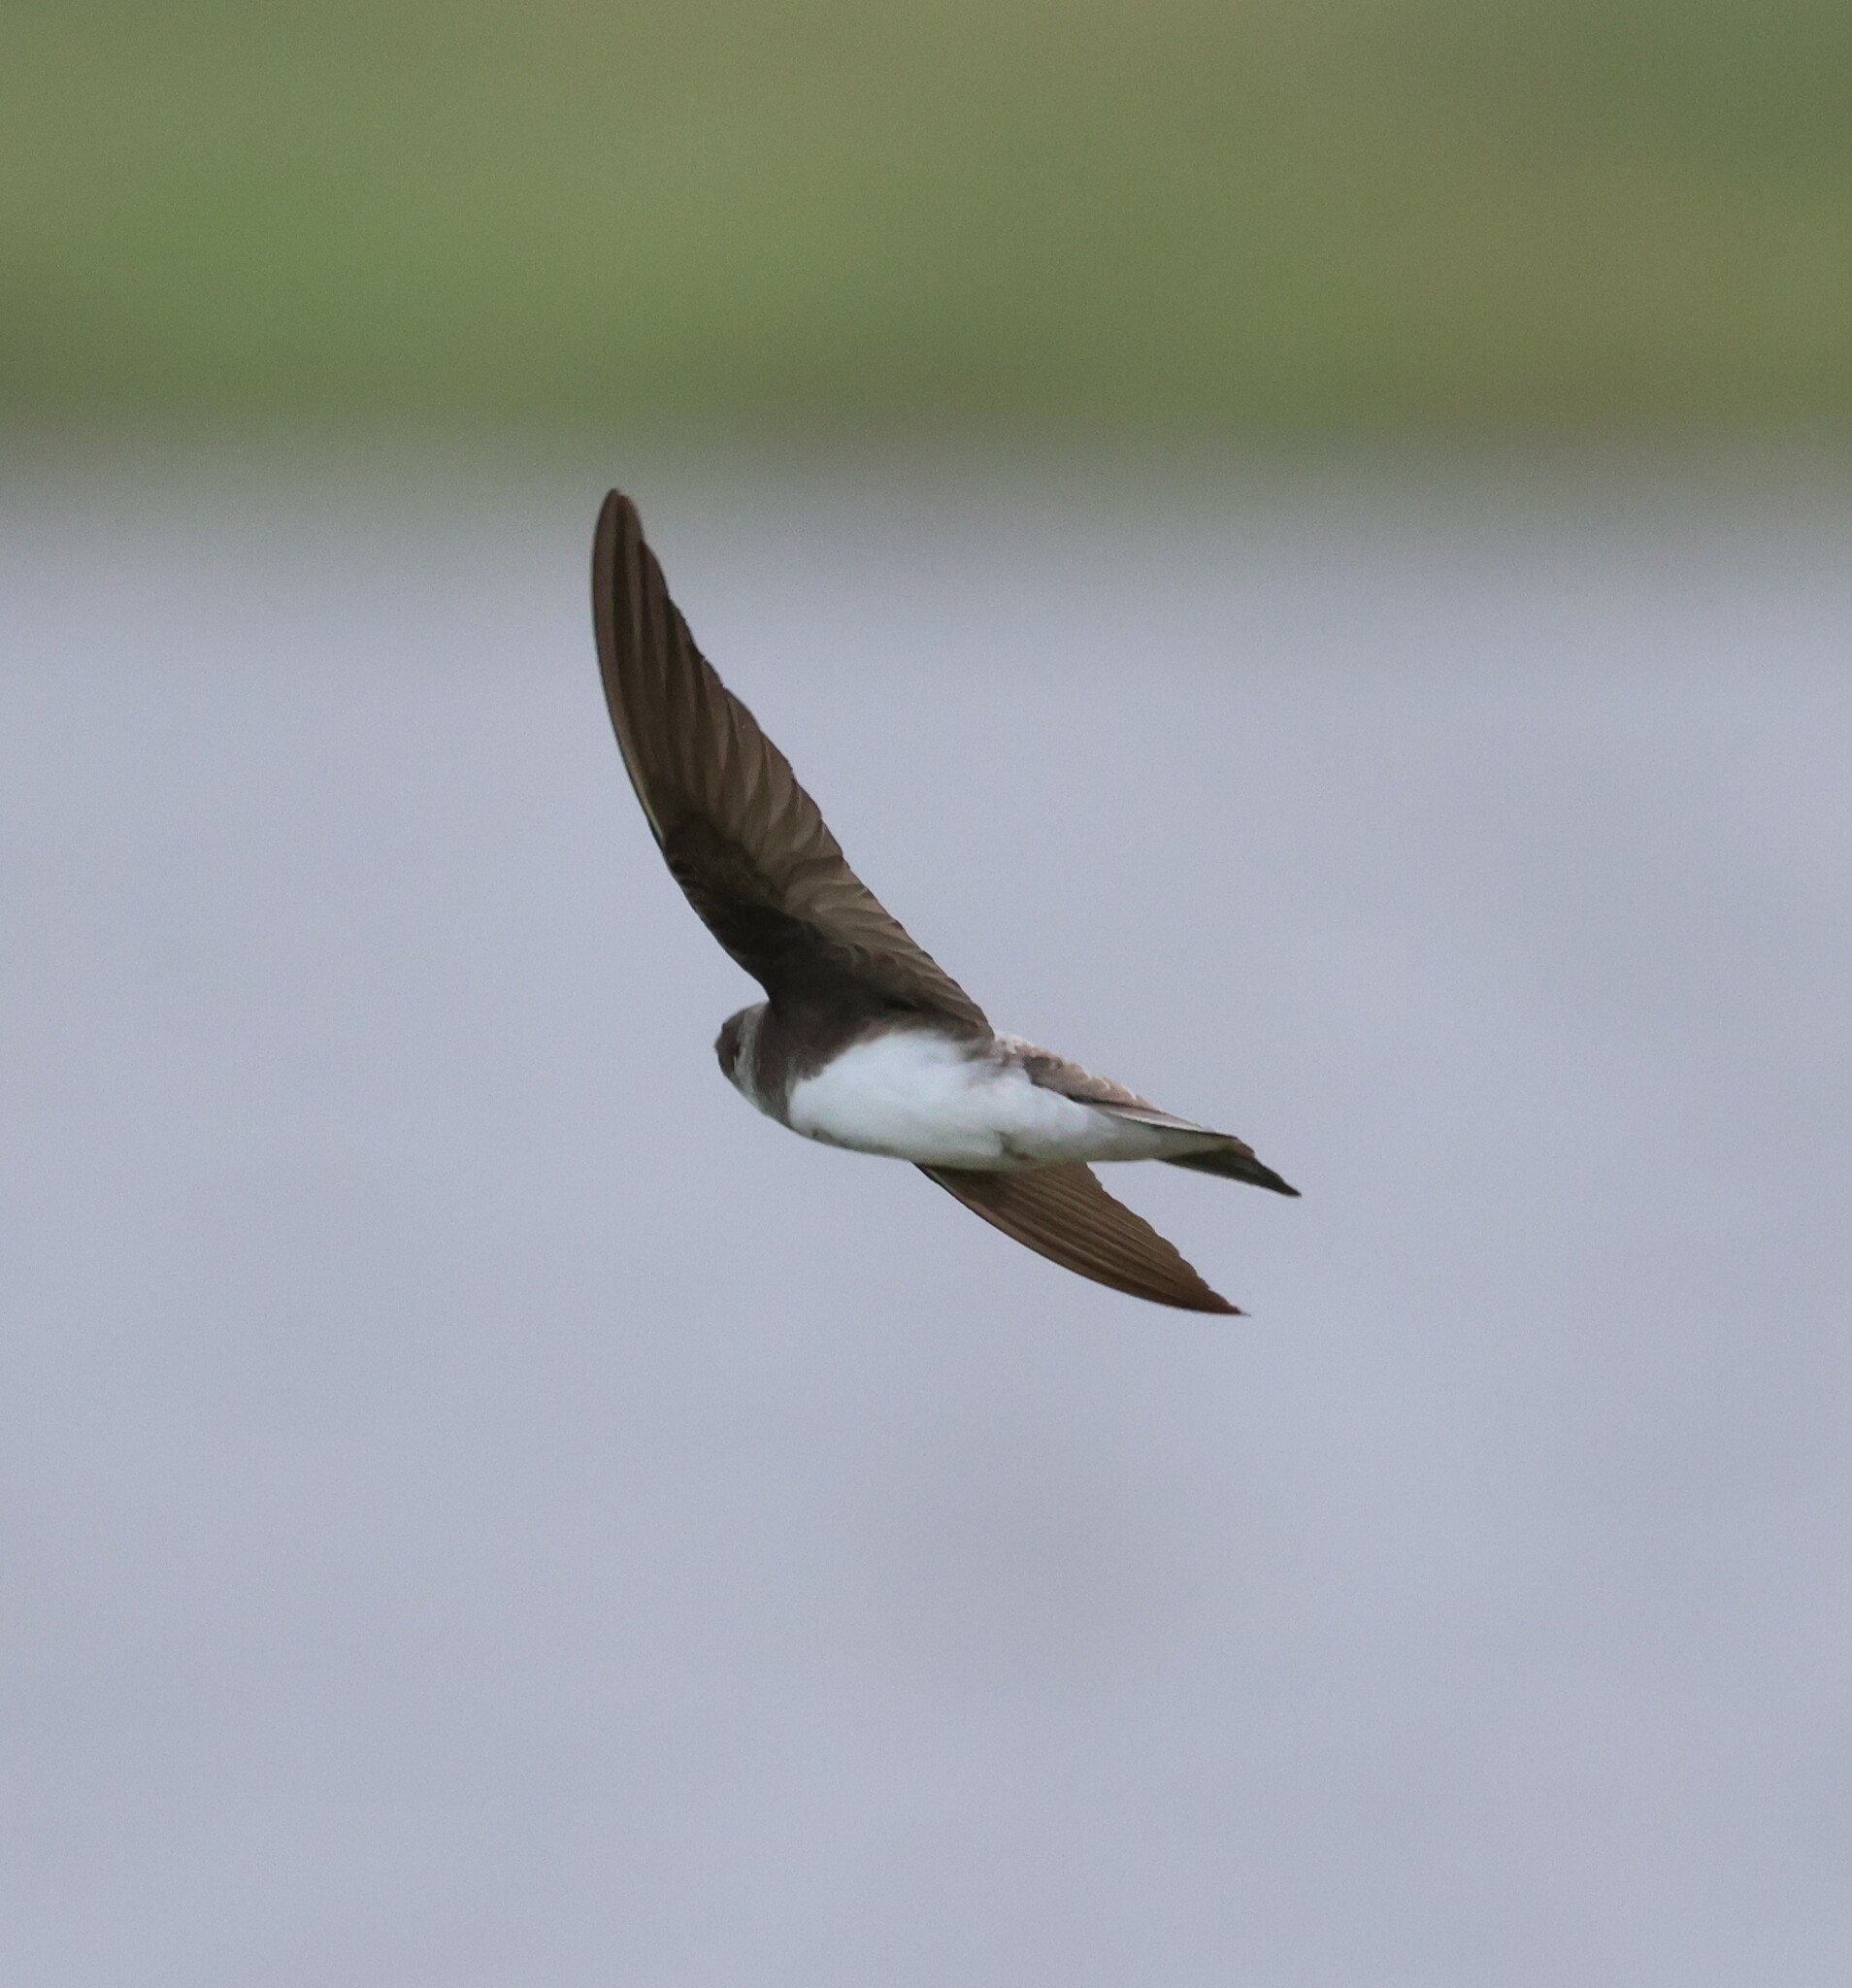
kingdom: Animalia
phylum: Chordata
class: Aves
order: Passeriformes
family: Hirundinidae
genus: Riparia
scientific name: Riparia riparia
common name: Sand martin
